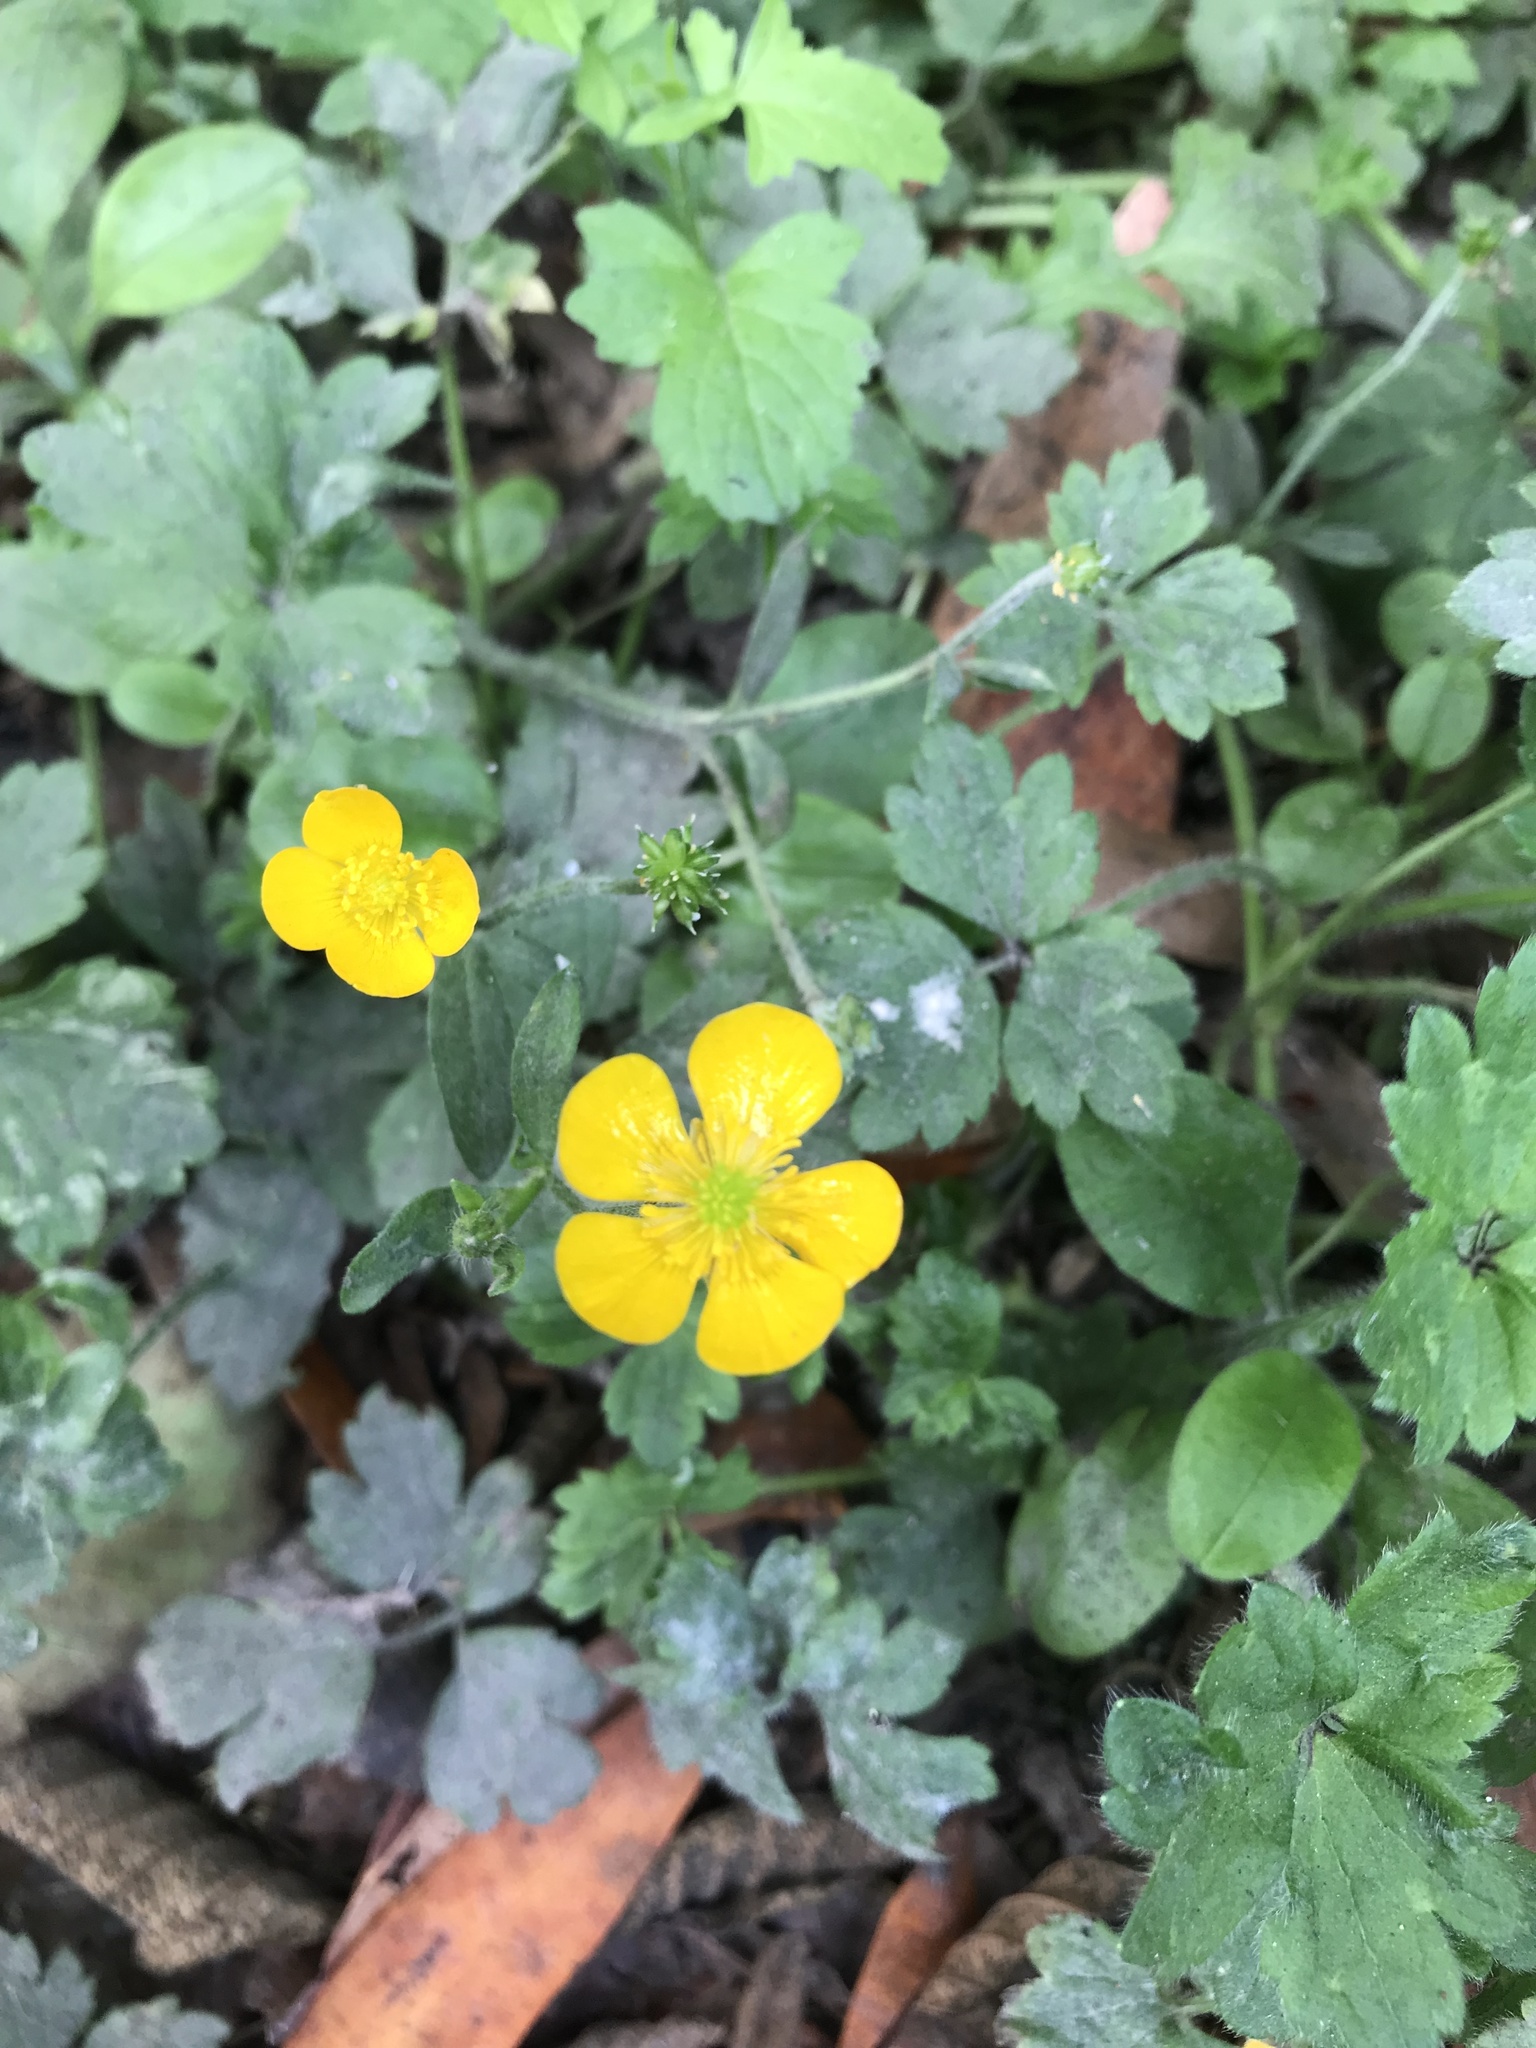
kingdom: Plantae
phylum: Tracheophyta
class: Magnoliopsida
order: Ranunculales
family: Ranunculaceae
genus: Ranunculus
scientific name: Ranunculus repens
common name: Creeping buttercup
